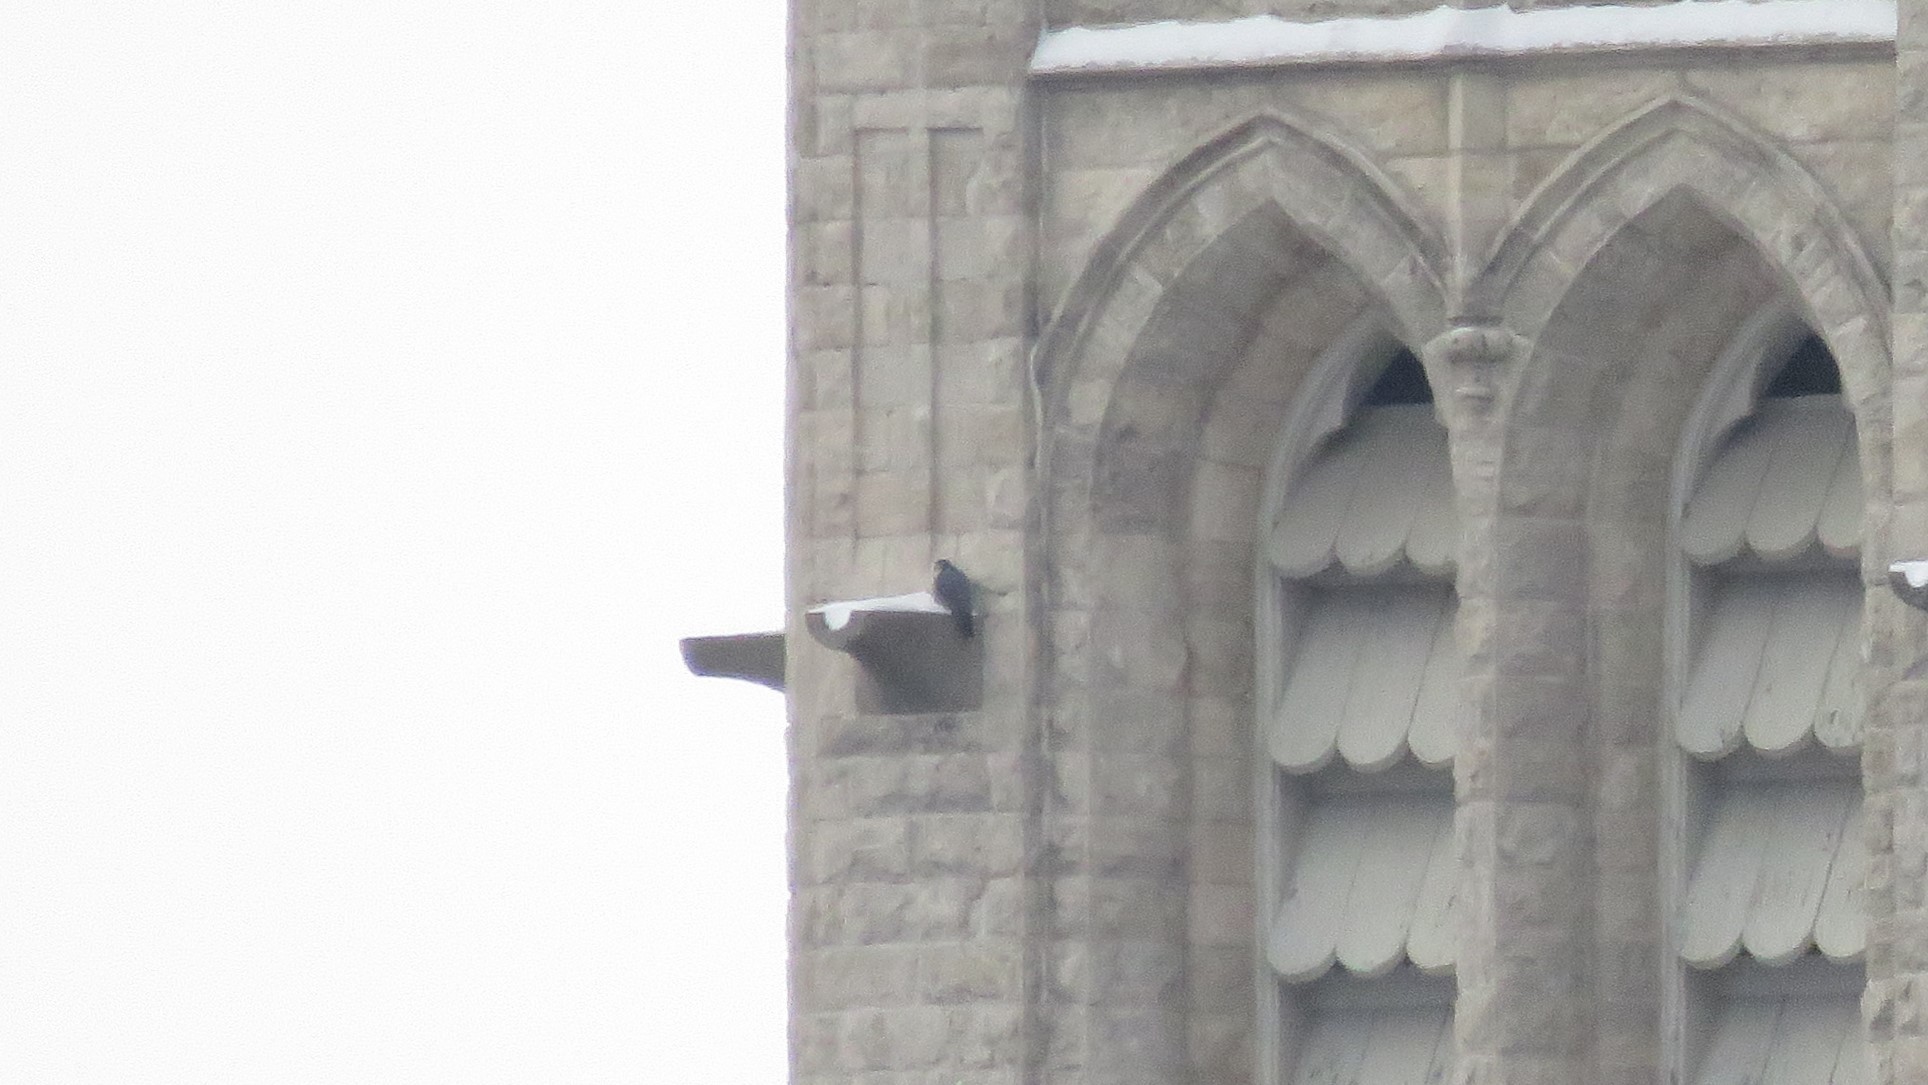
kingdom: Animalia
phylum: Chordata
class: Aves
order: Falconiformes
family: Falconidae
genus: Falco
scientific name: Falco peregrinus
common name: Peregrine falcon
